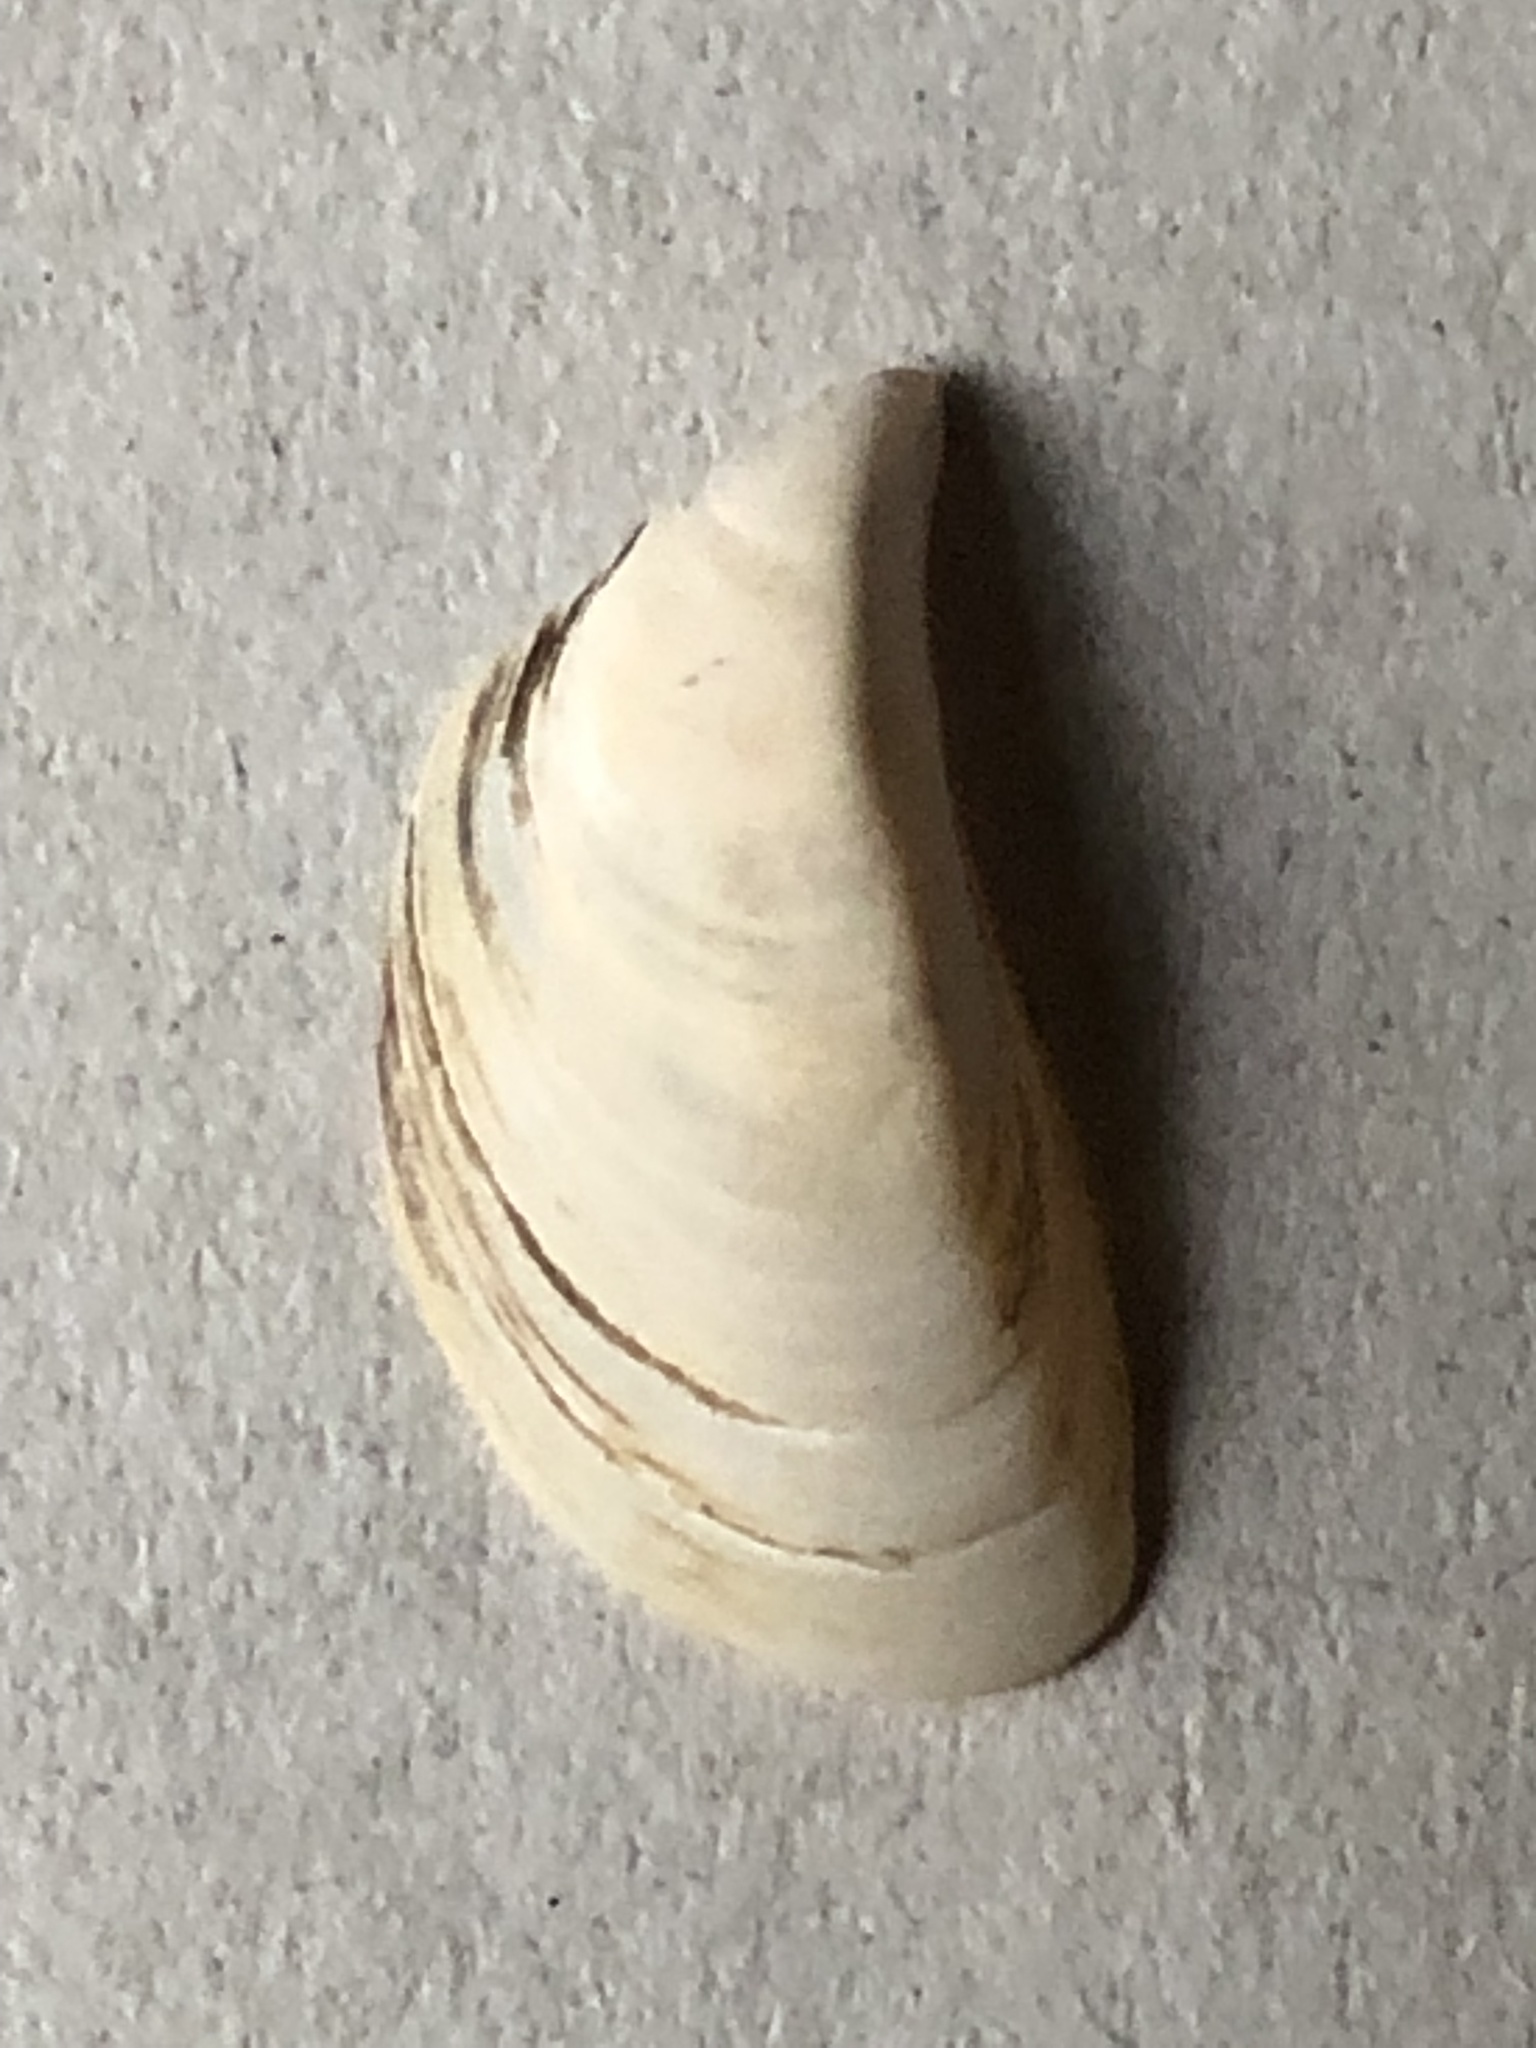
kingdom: Animalia
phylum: Mollusca
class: Bivalvia
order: Myida
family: Dreissenidae
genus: Dreissena
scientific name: Dreissena polymorpha
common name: Zebra mussel
